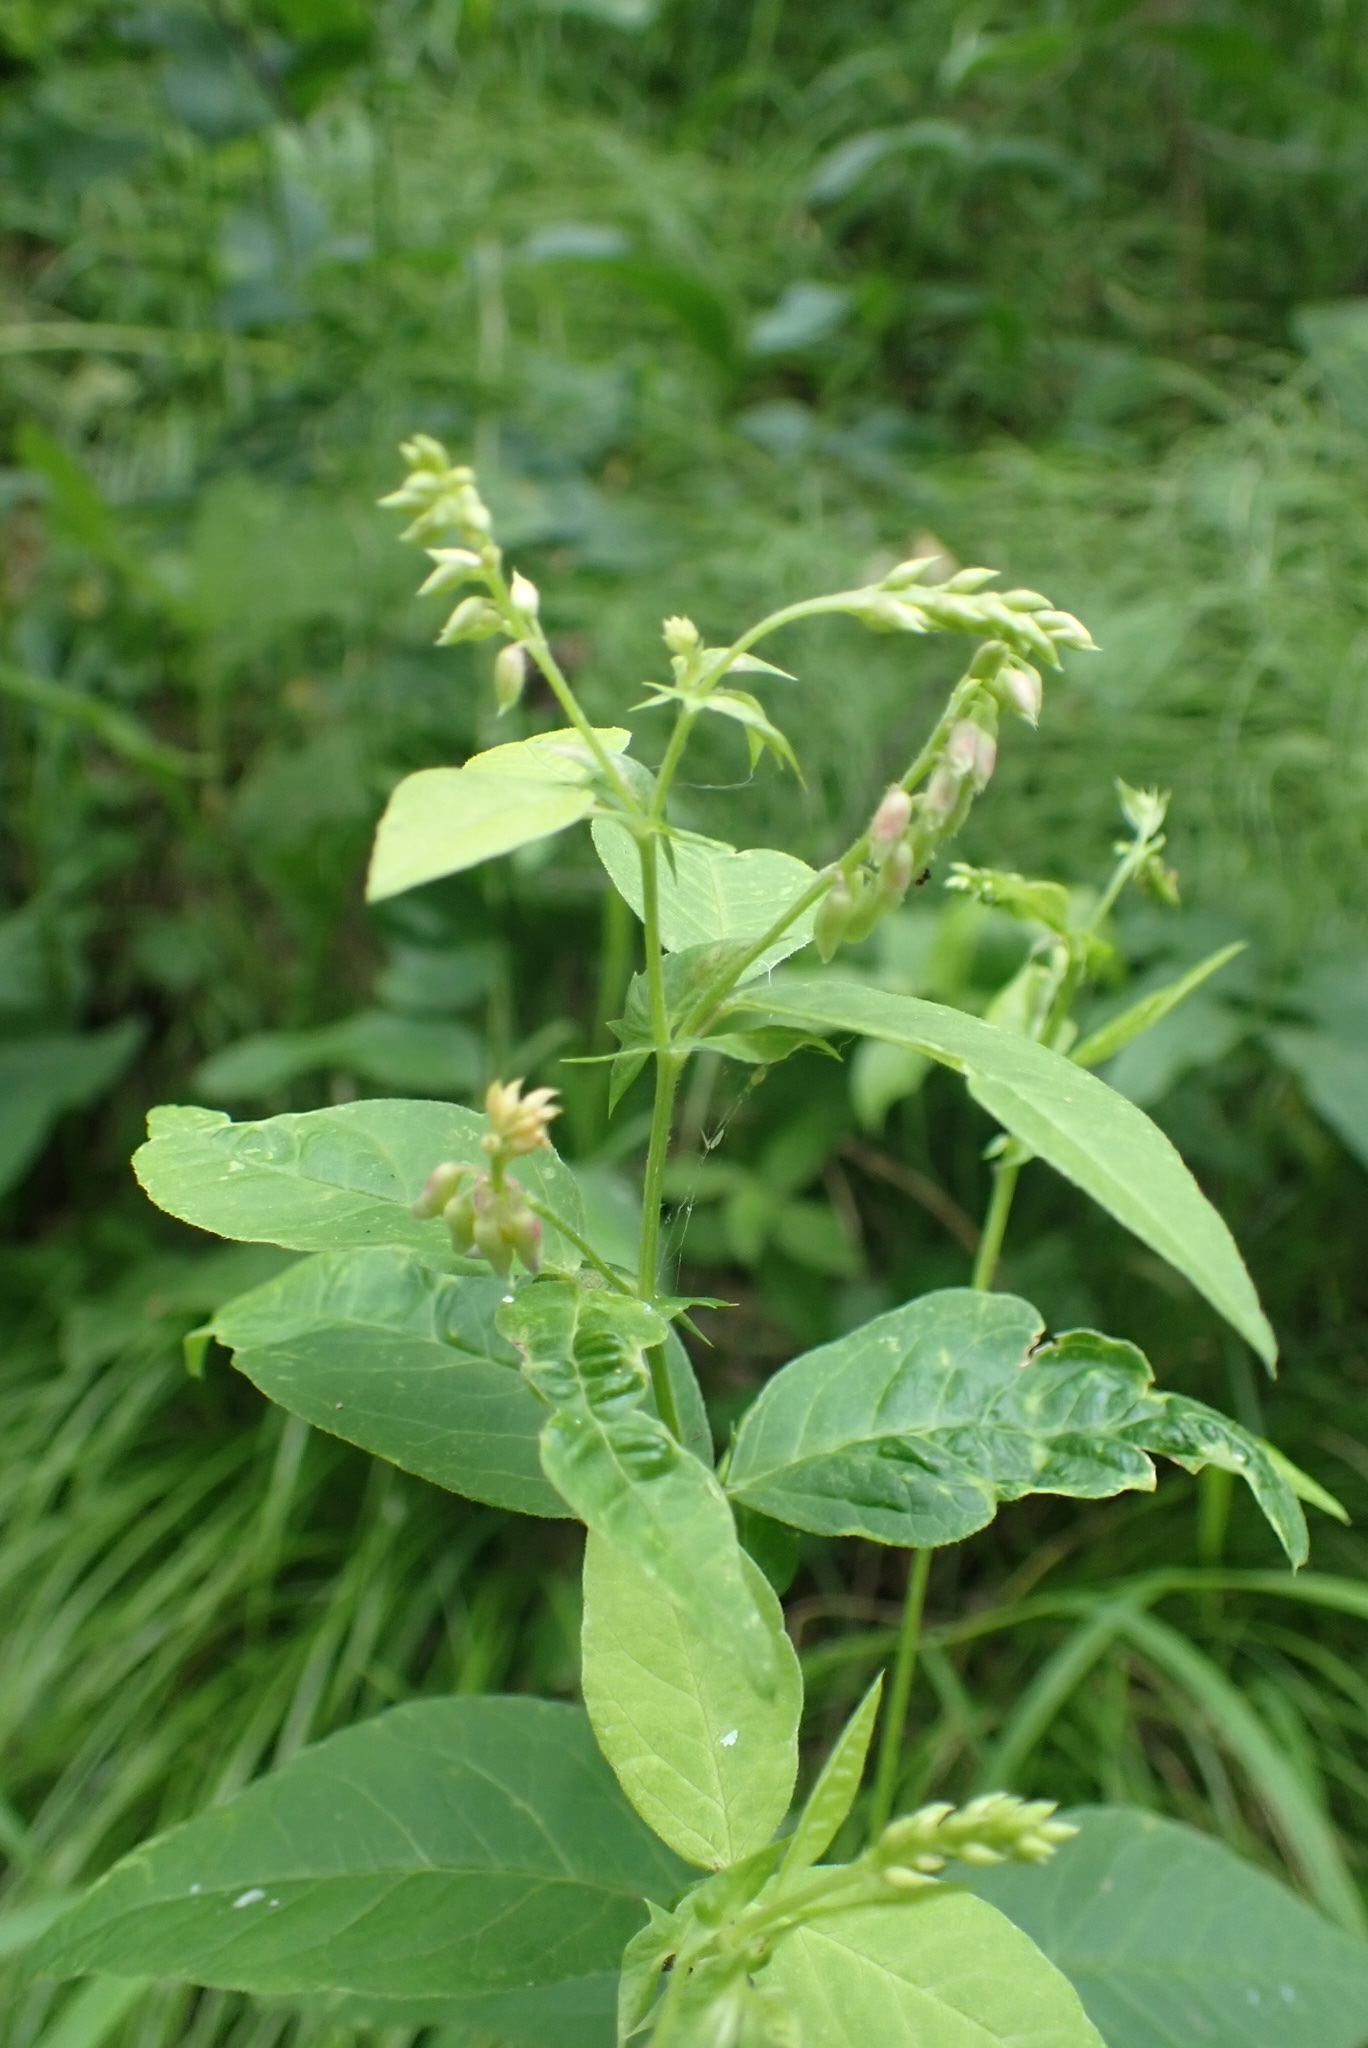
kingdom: Plantae
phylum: Tracheophyta
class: Magnoliopsida
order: Fabales
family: Fabaceae
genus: Vicia
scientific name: Vicia unijuga
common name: Two-leaf vetch
